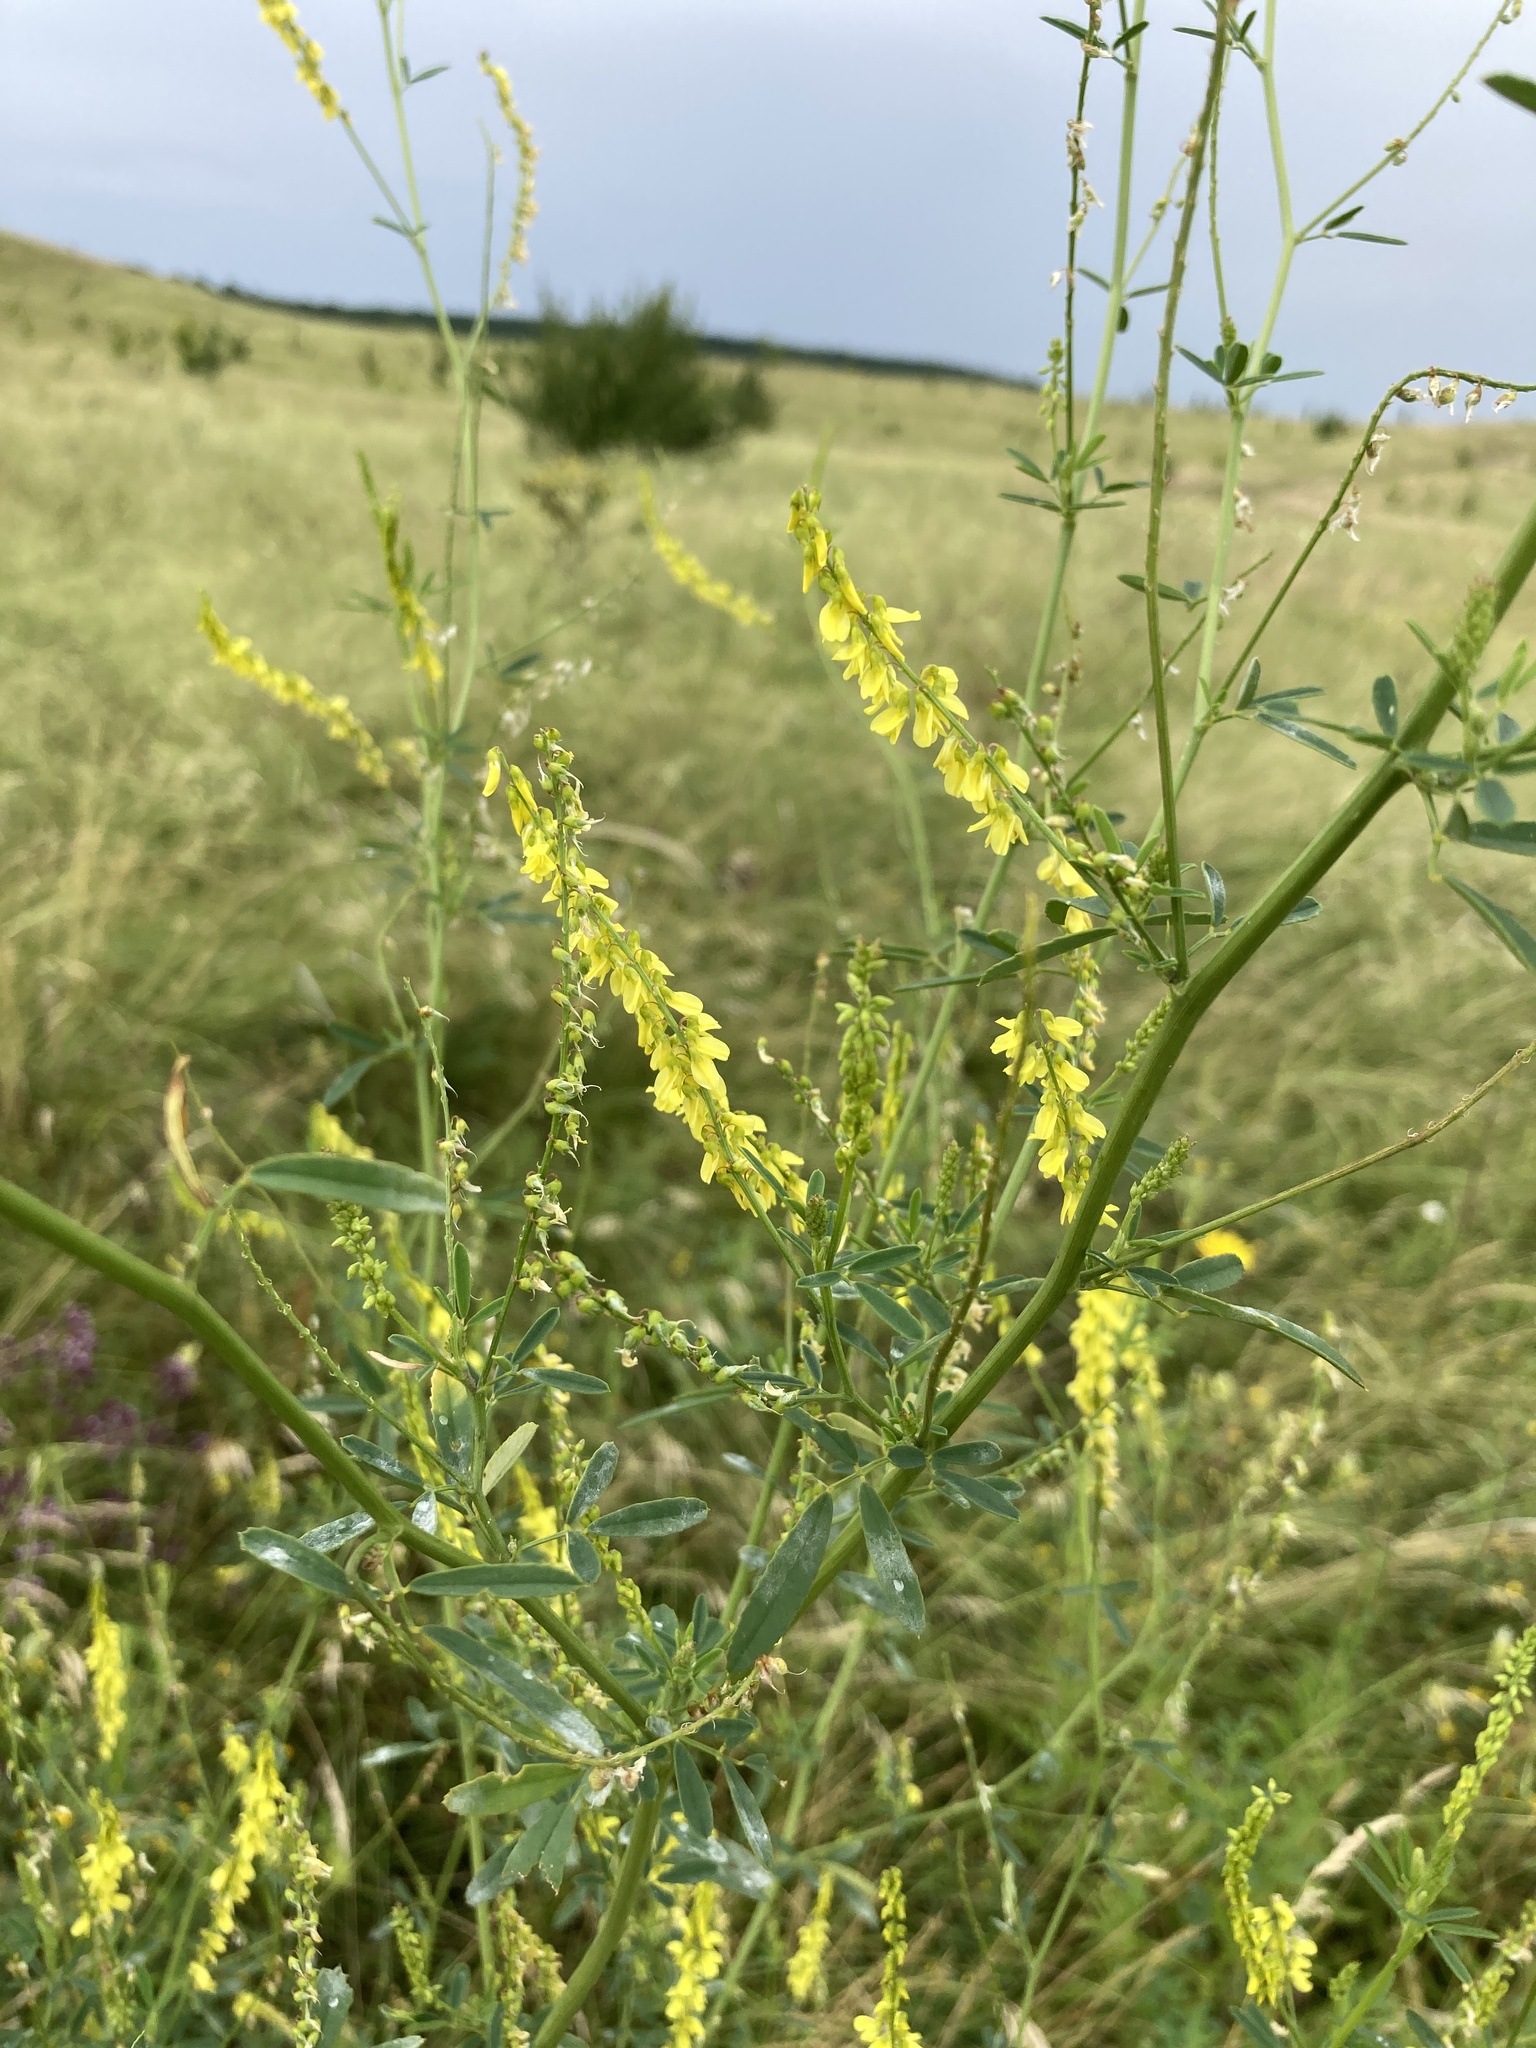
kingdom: Plantae
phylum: Tracheophyta
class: Magnoliopsida
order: Fabales
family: Fabaceae
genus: Melilotus
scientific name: Melilotus officinalis
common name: Sweetclover
